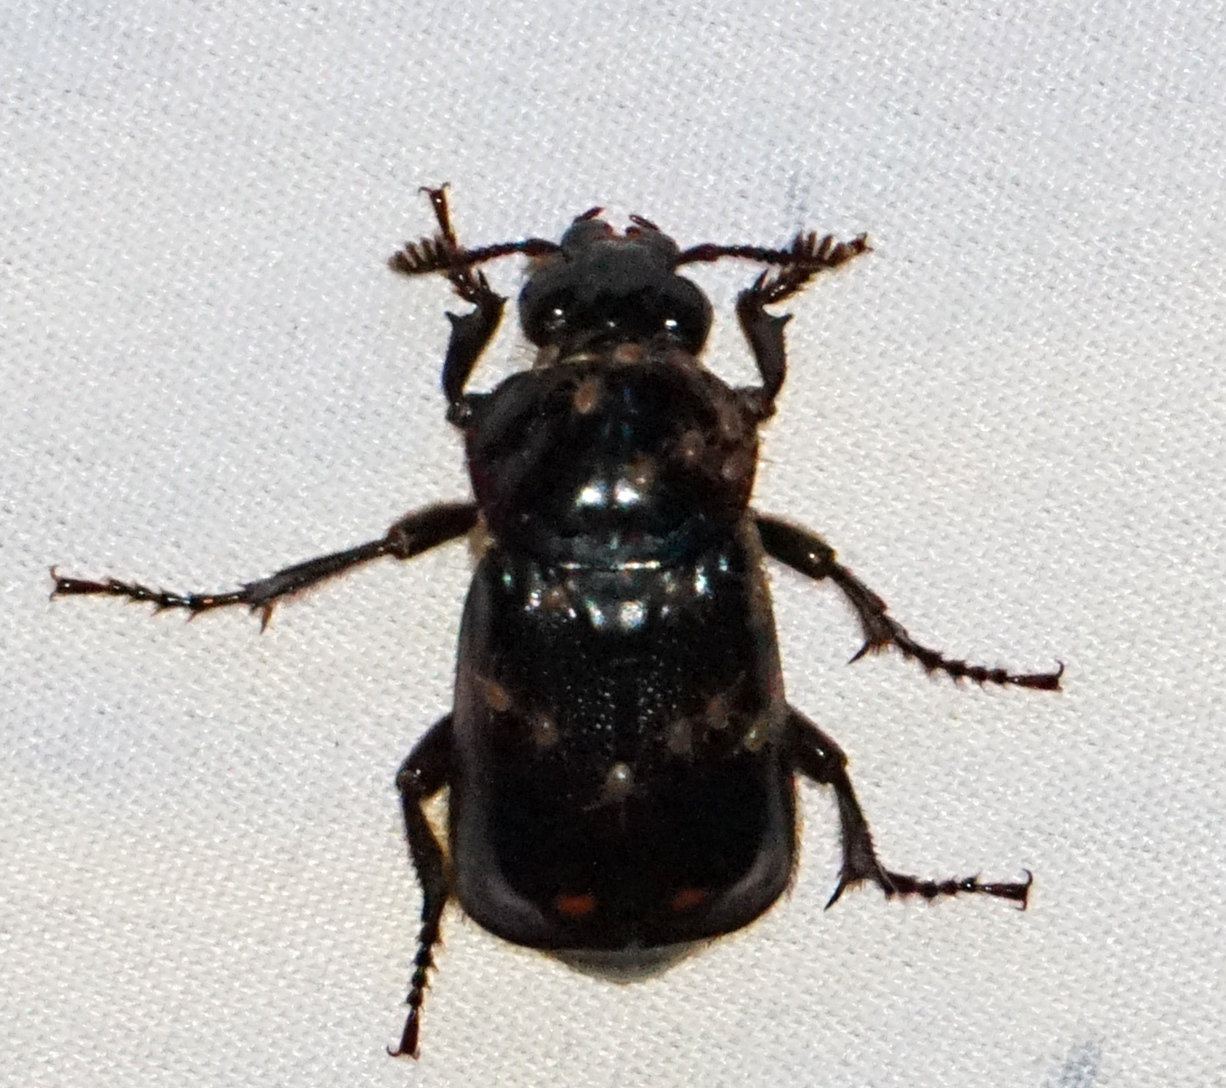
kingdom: Animalia
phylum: Arthropoda
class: Insecta
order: Coleoptera
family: Staphylinidae
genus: Nicrophorus
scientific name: Nicrophorus pustulatus
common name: Pustulated carrion beetle
